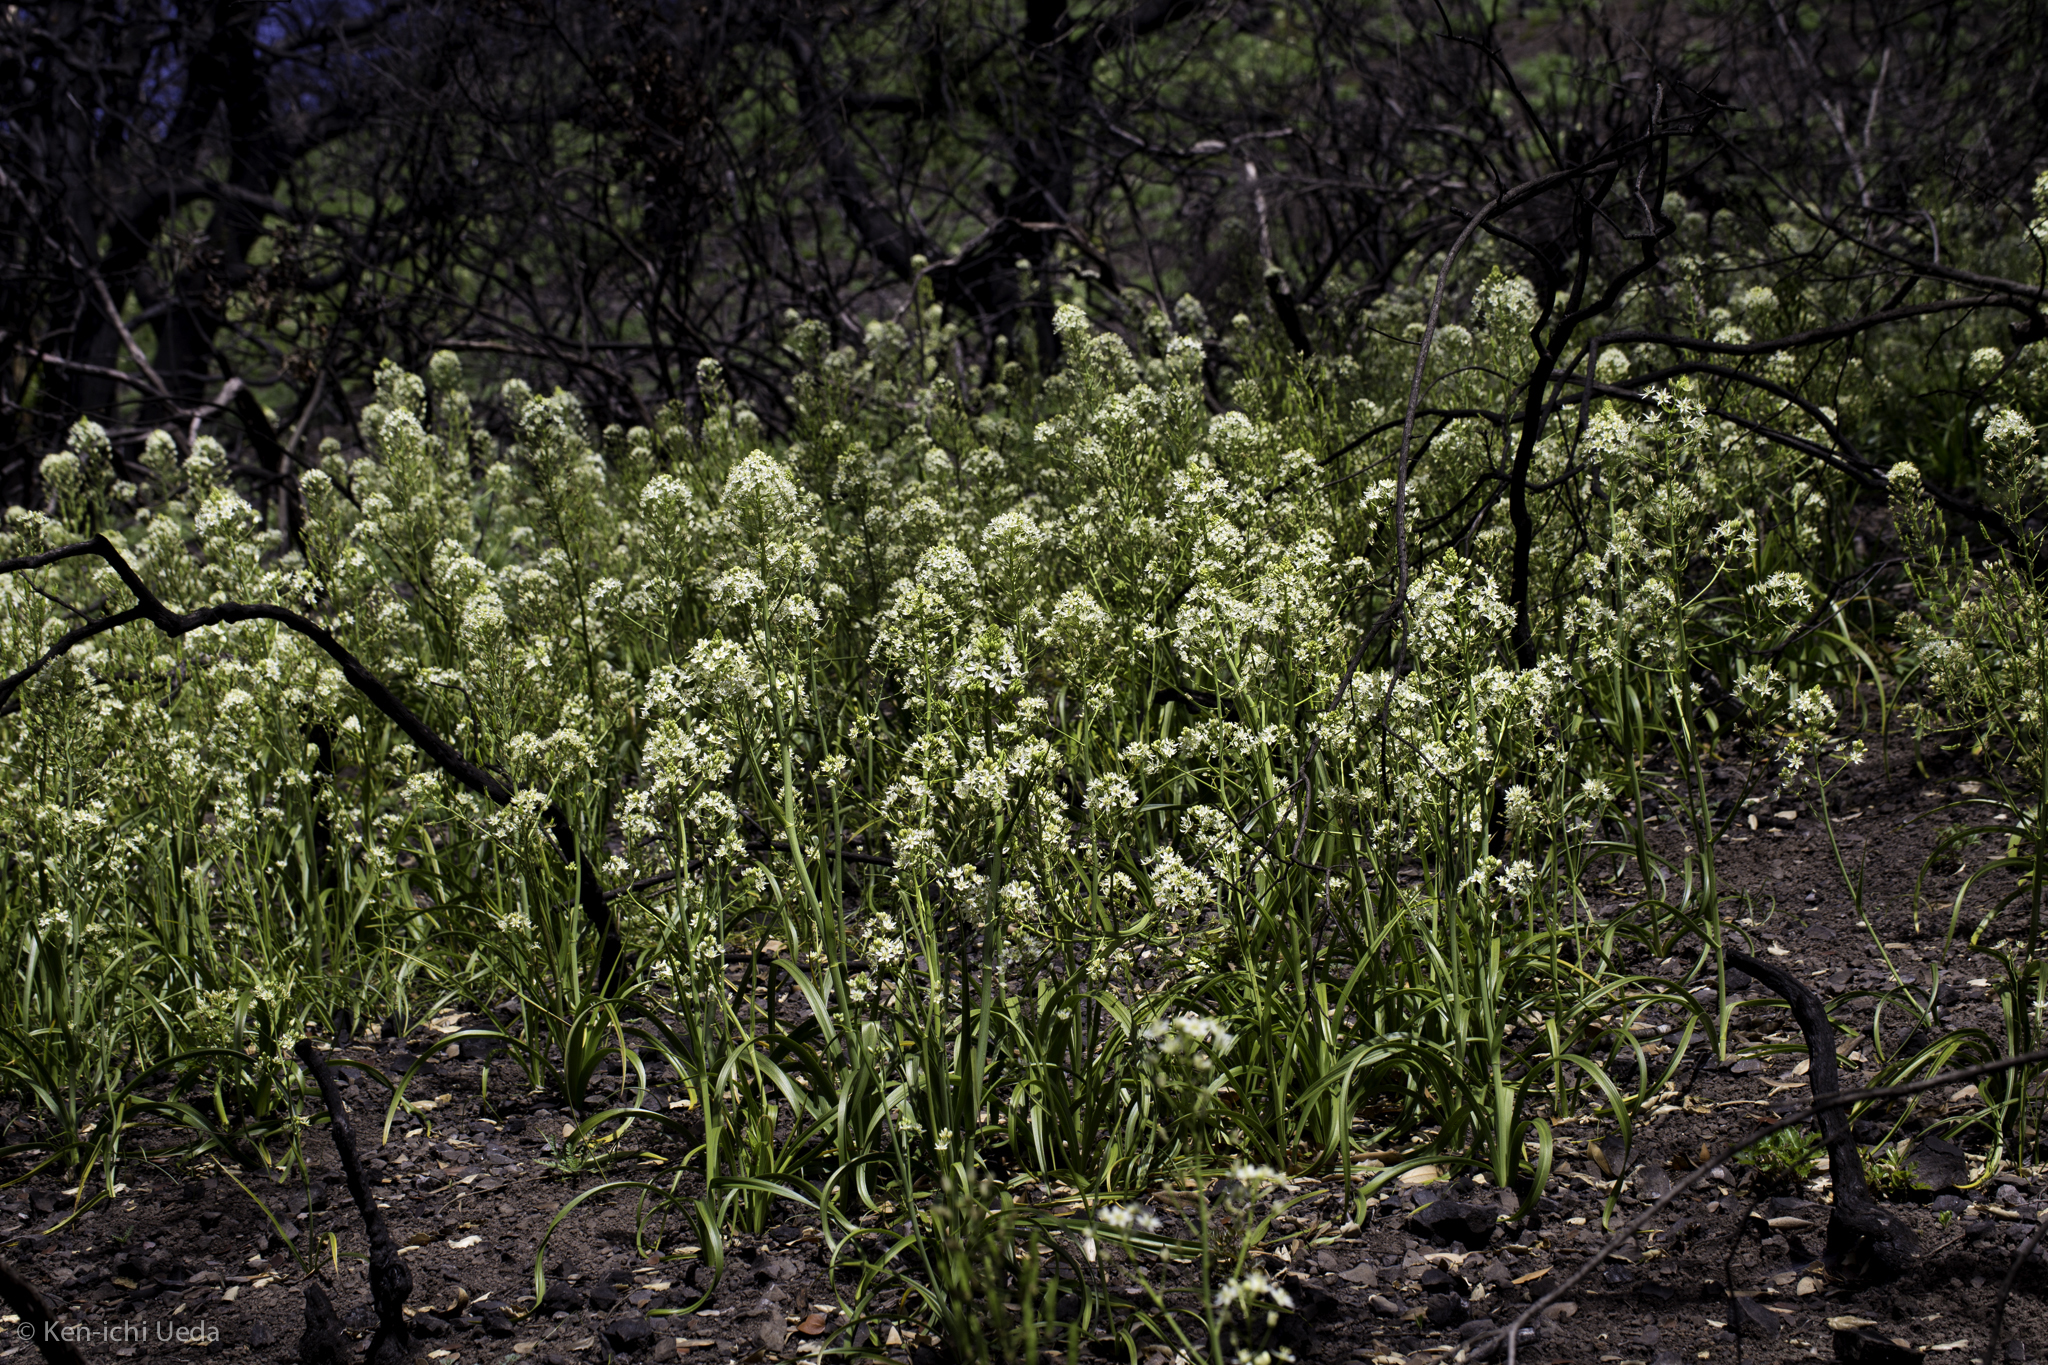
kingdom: Plantae
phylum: Tracheophyta
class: Liliopsida
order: Liliales
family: Melanthiaceae
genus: Toxicoscordion
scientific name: Toxicoscordion fremontii
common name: Fremont's death camas
